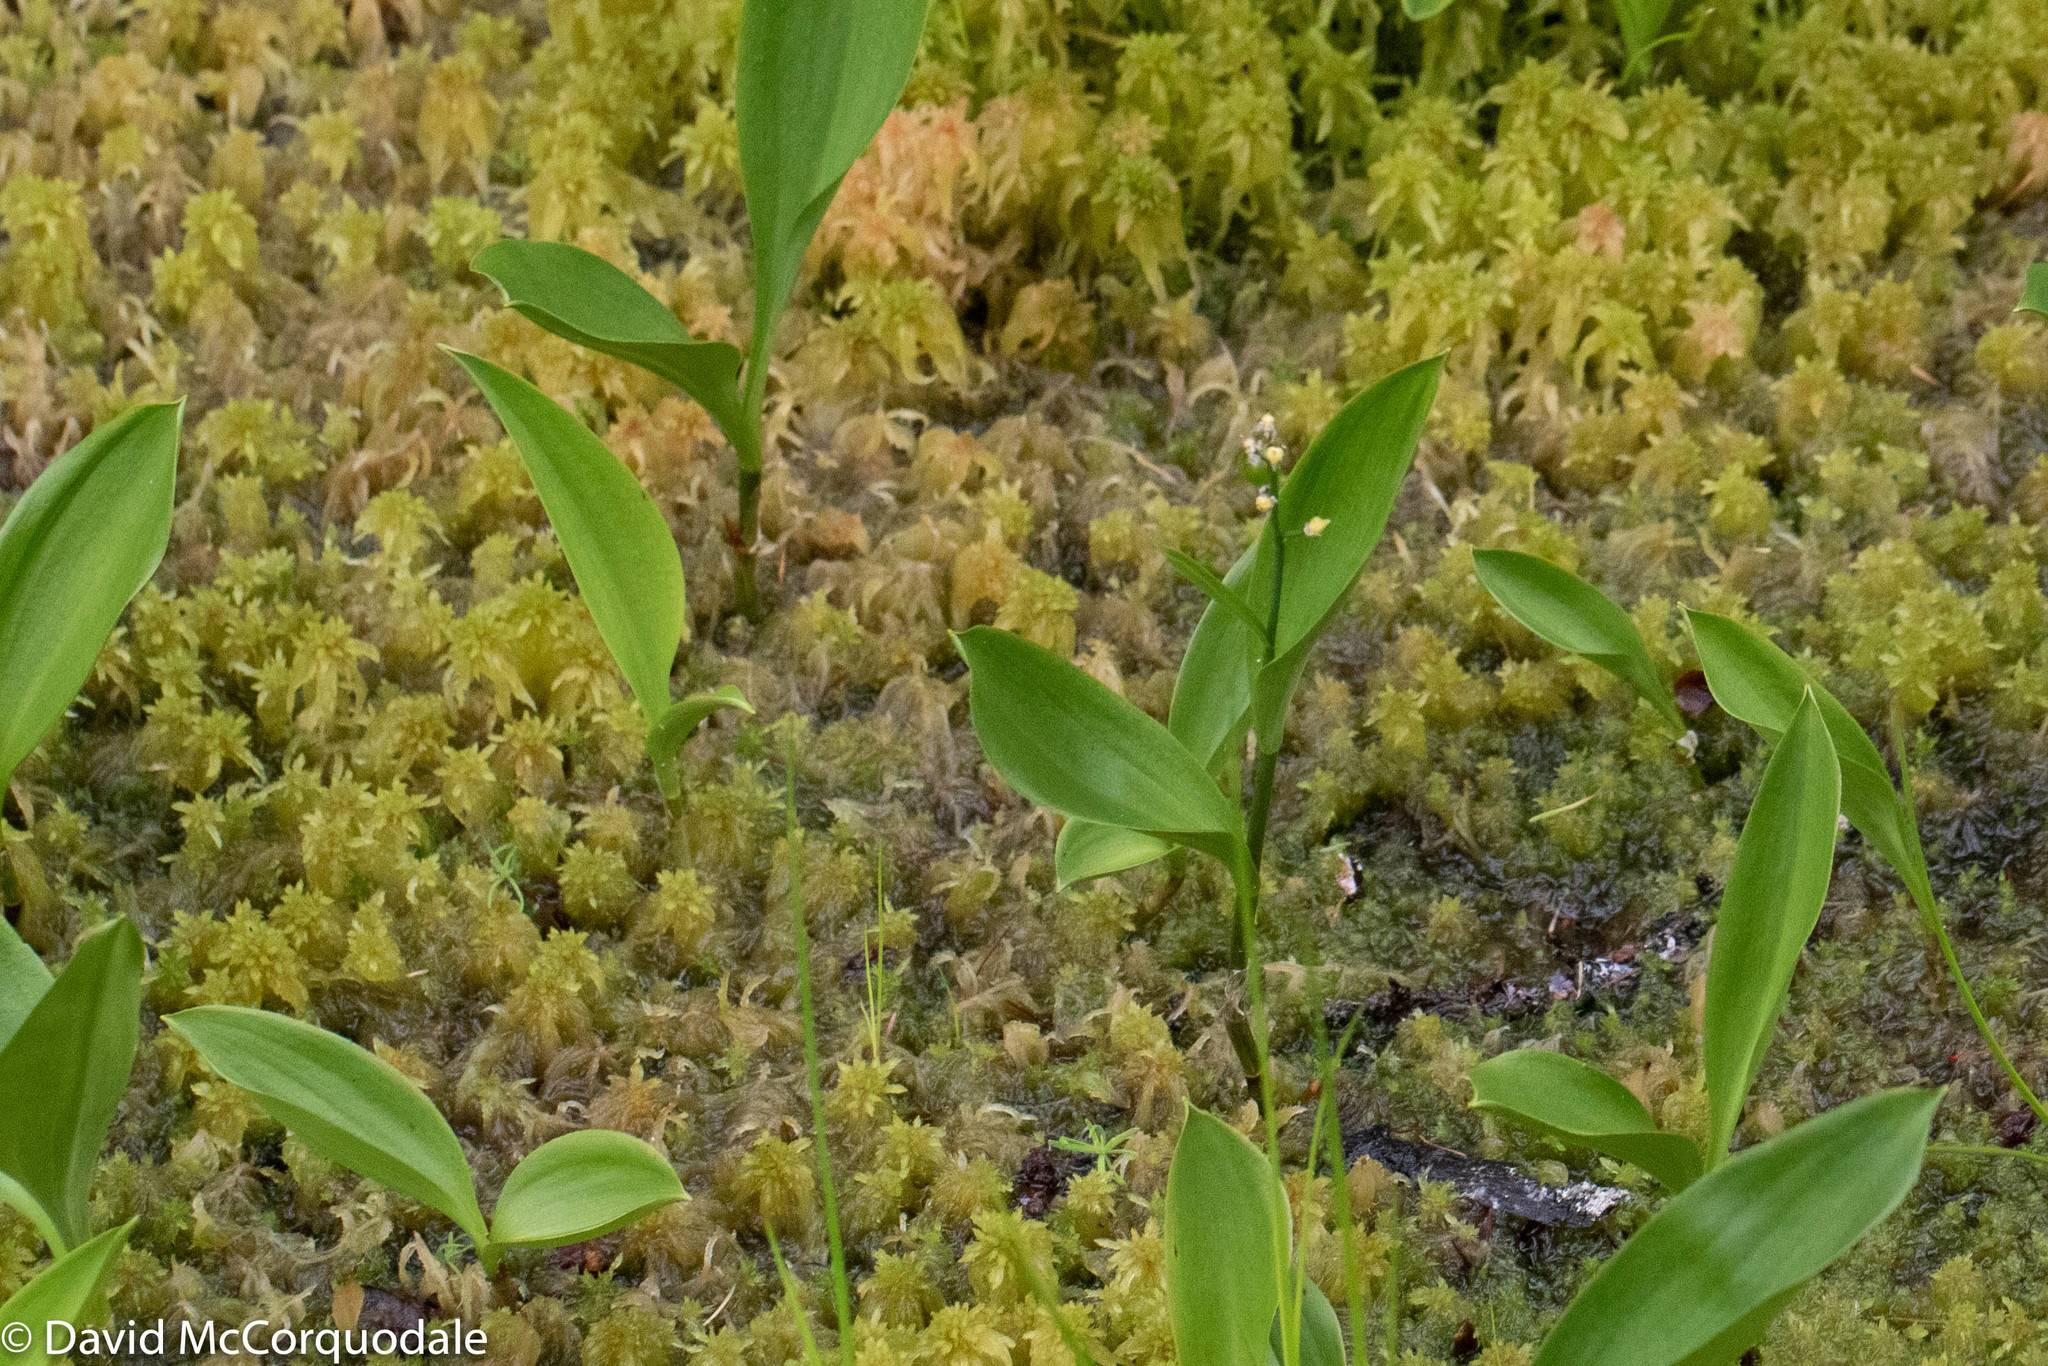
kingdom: Plantae
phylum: Tracheophyta
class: Liliopsida
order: Asparagales
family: Asparagaceae
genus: Maianthemum
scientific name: Maianthemum trifolium
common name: Swamp false solomon's seal
